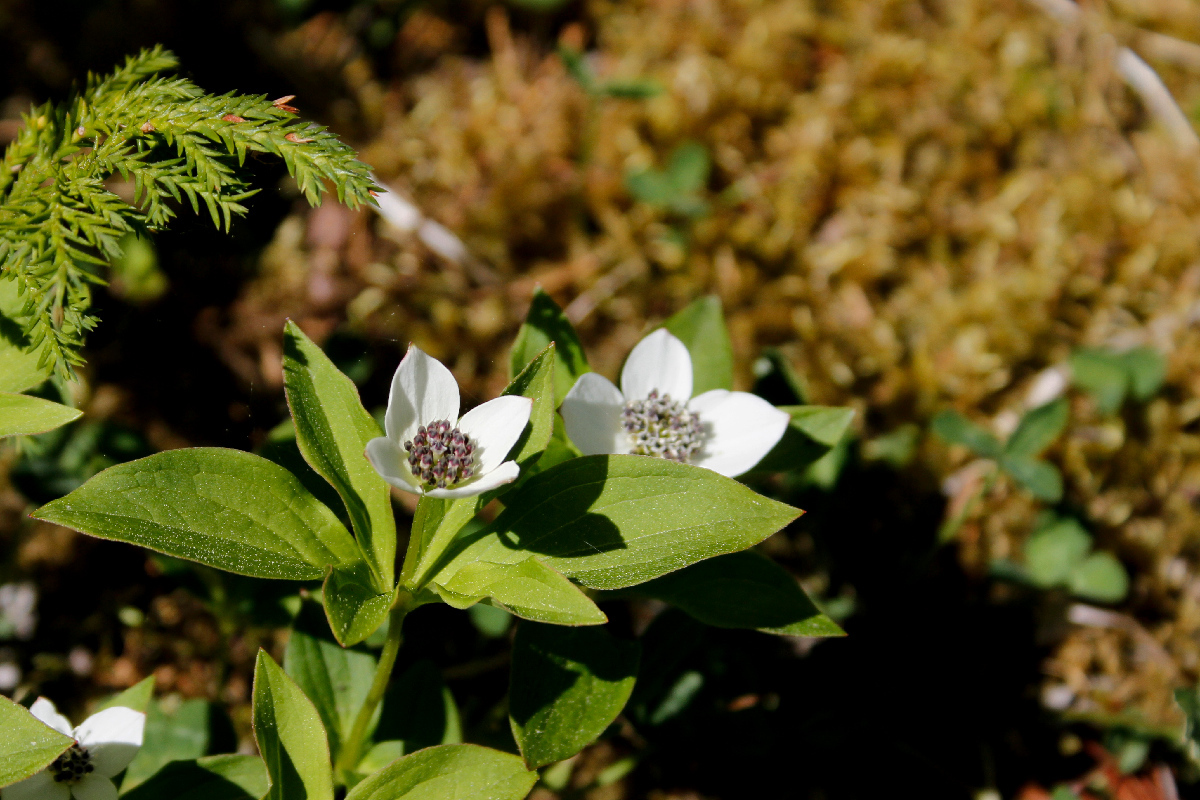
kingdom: Plantae
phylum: Tracheophyta
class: Magnoliopsida
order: Cornales
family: Cornaceae
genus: Cornus
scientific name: Cornus unalaschkensis
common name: Alaska bunchberry
